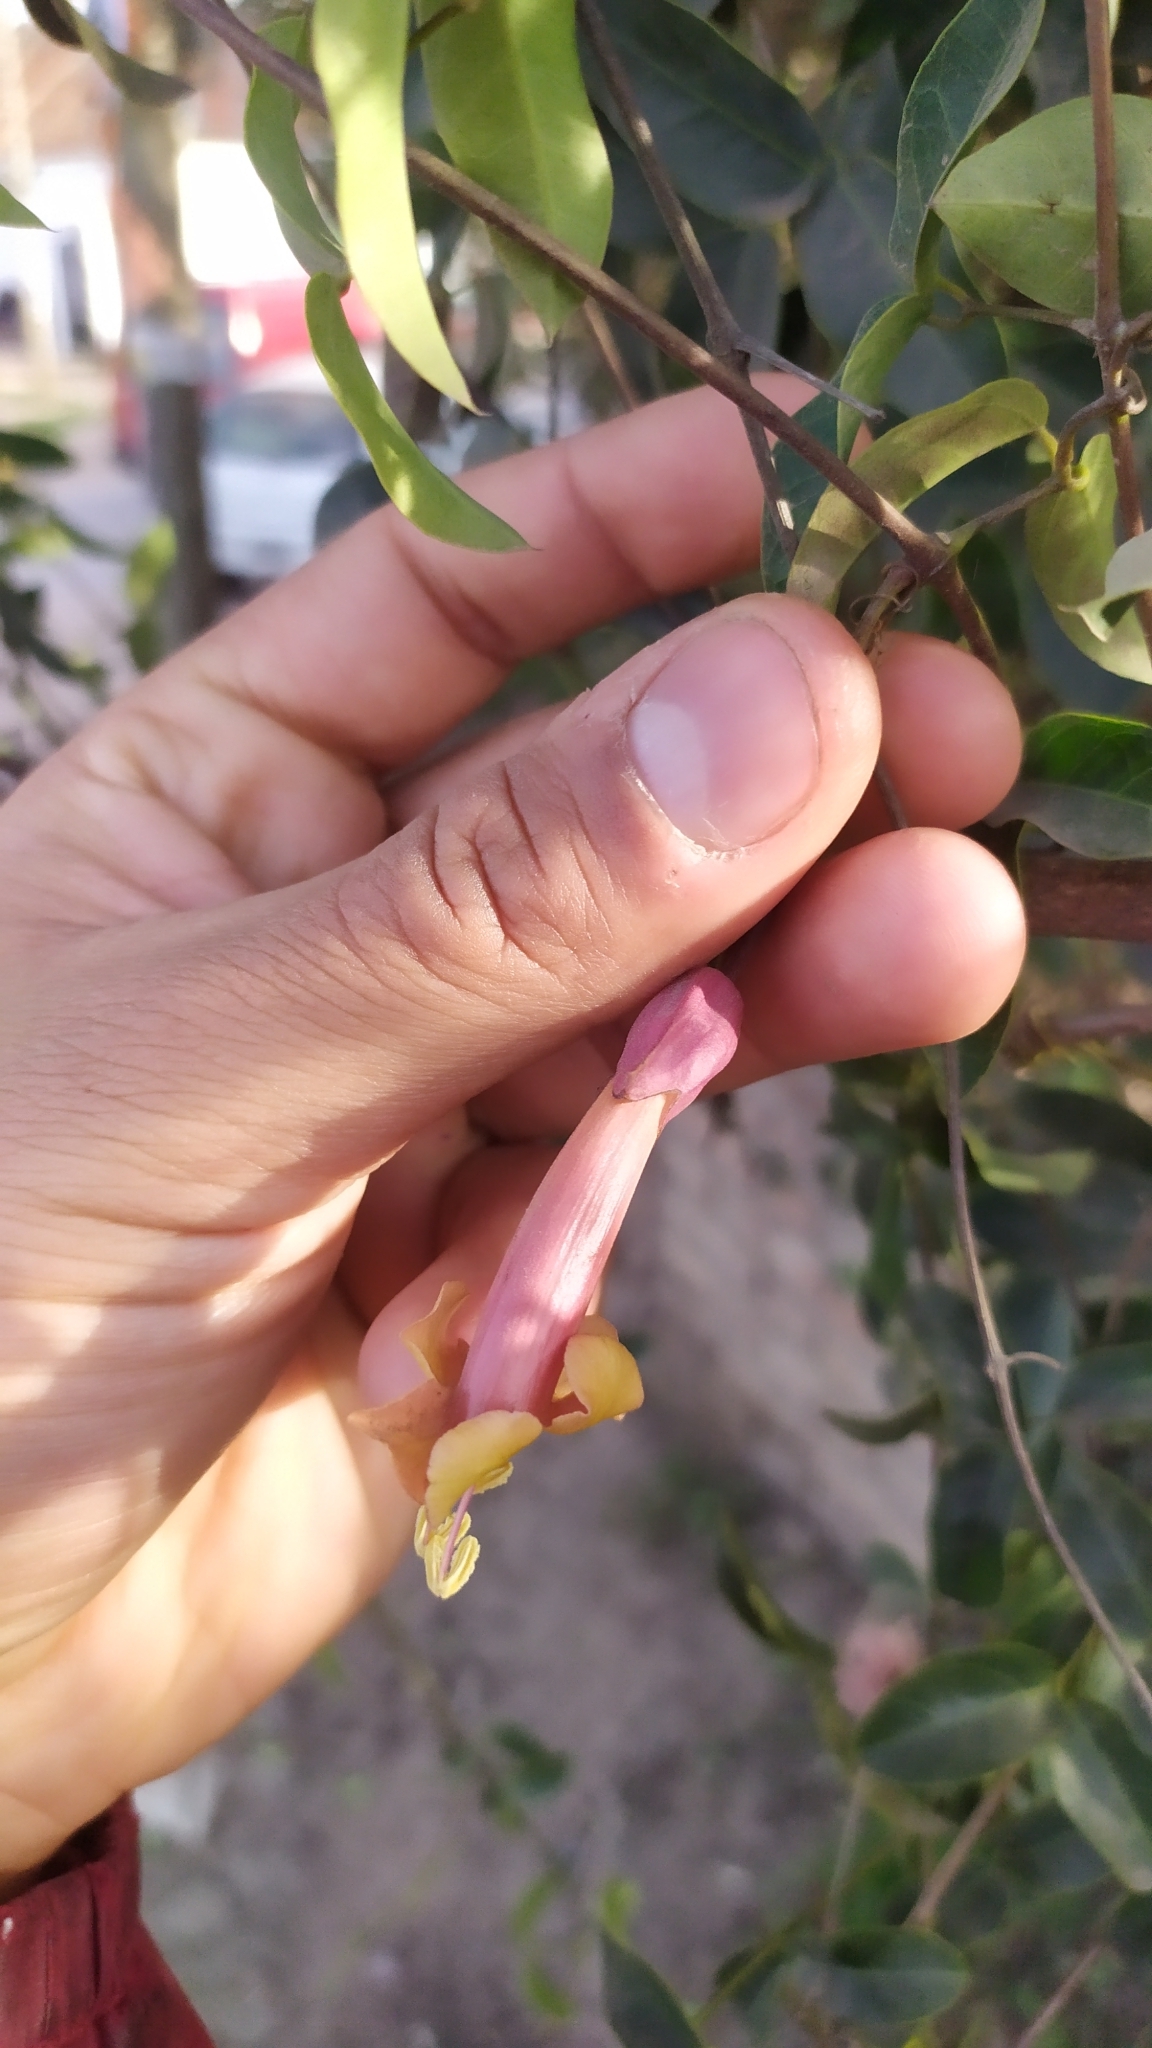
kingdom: Plantae
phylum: Tracheophyta
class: Magnoliopsida
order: Lamiales
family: Bignoniaceae
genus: Dolichandra
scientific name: Dolichandra cynanchoides
